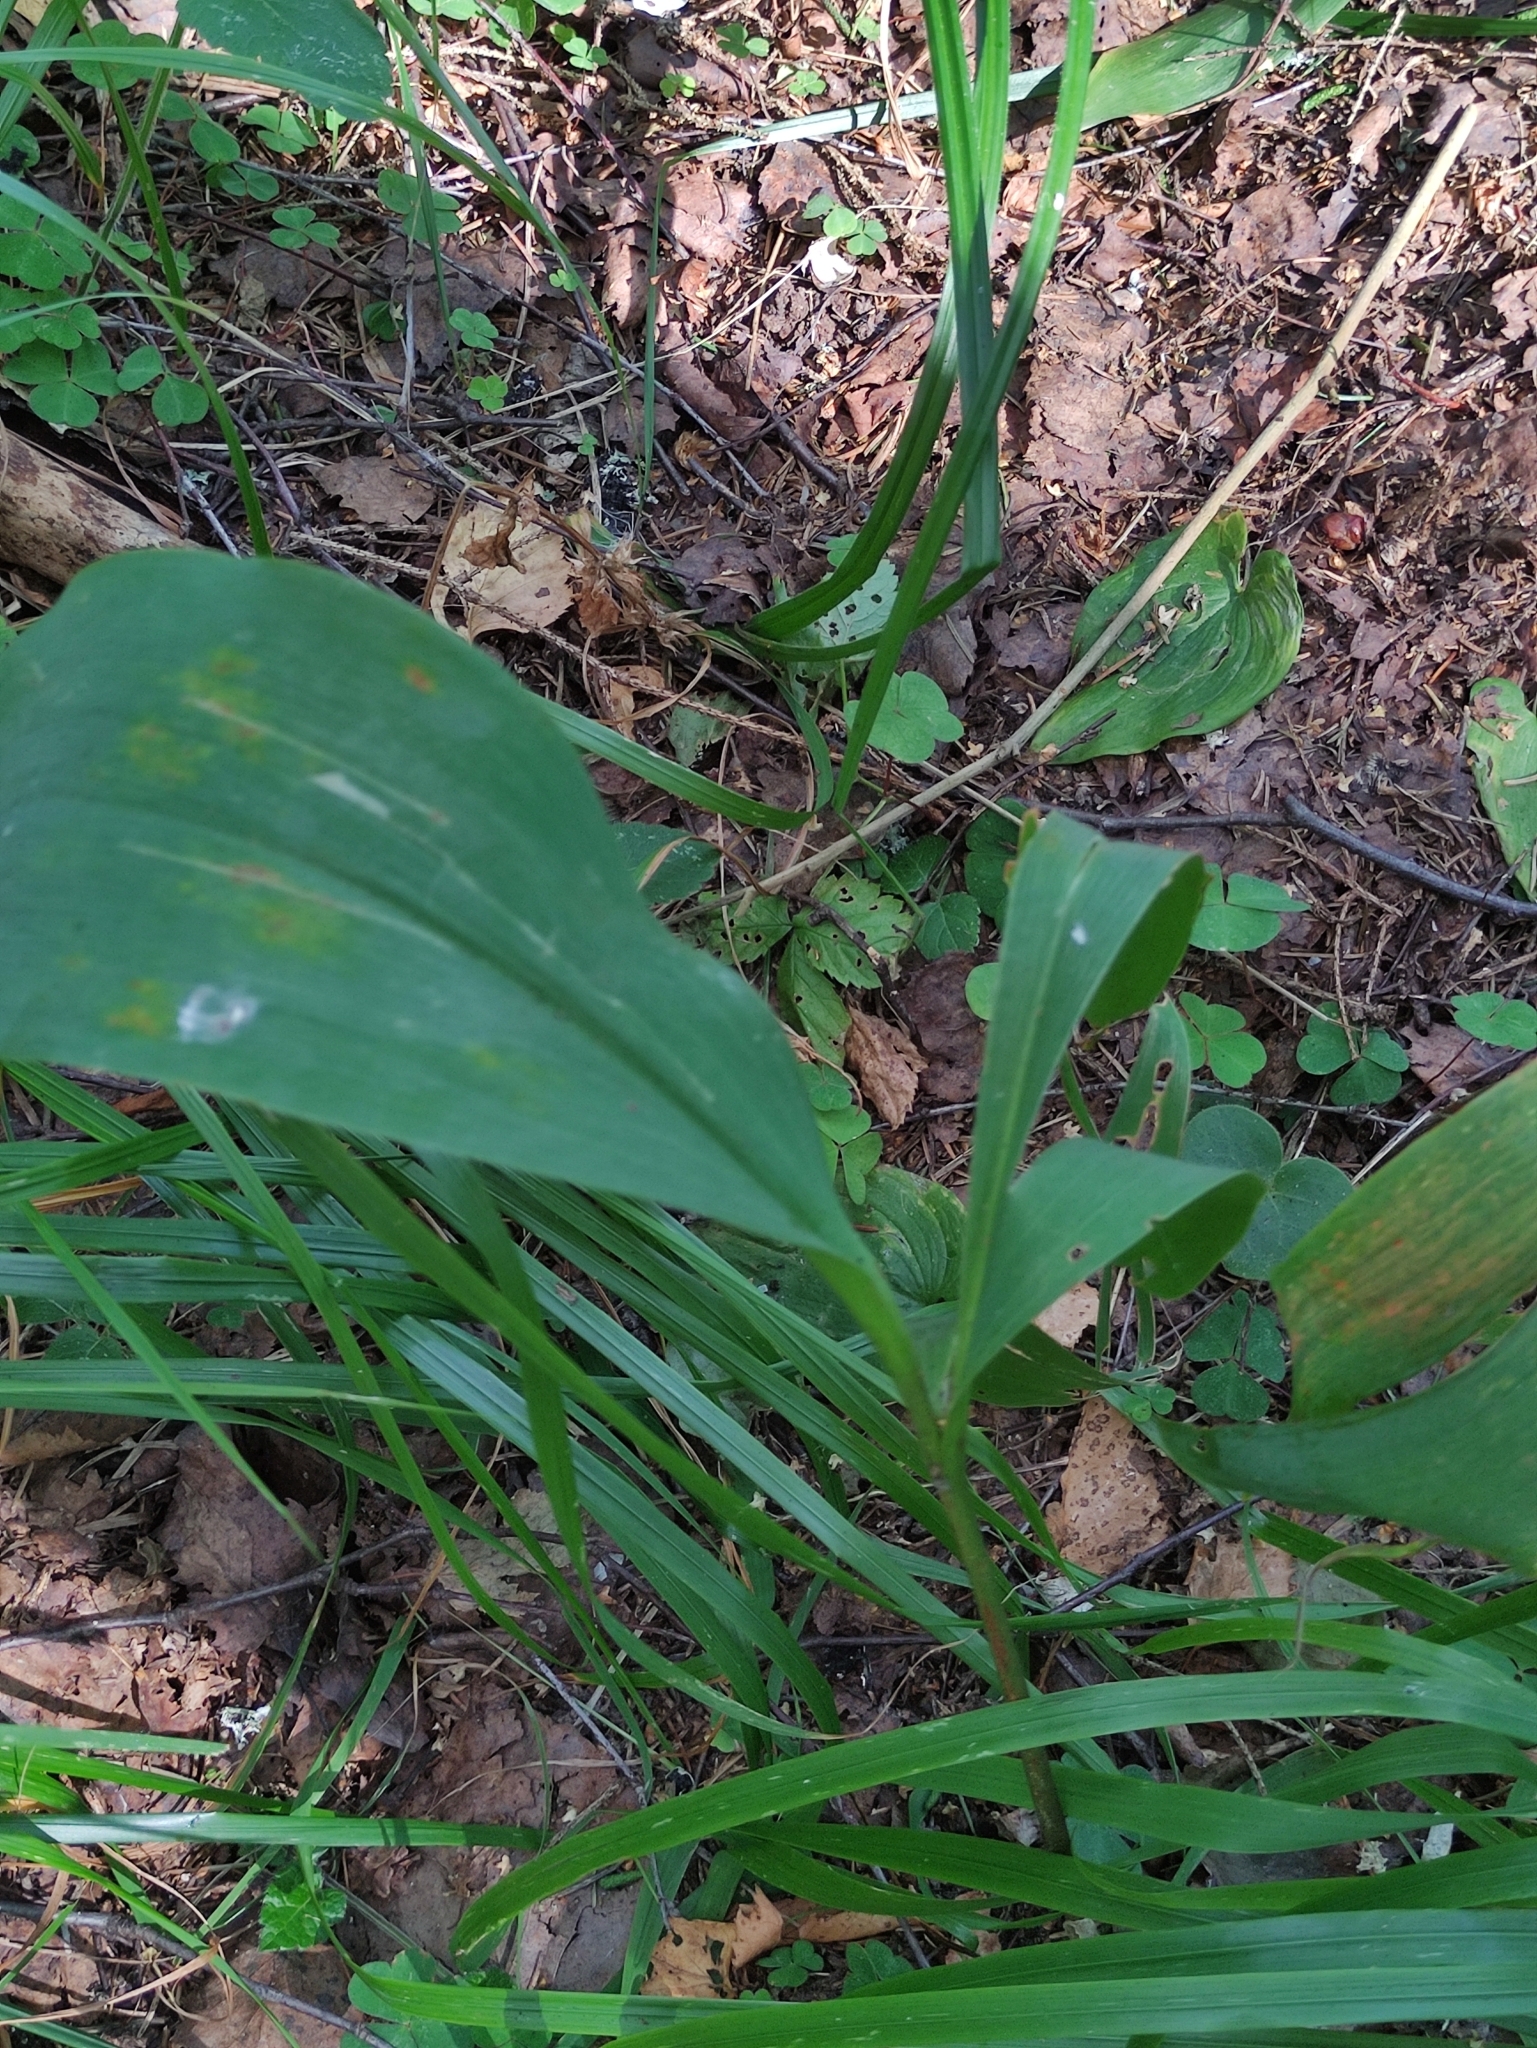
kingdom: Plantae
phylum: Tracheophyta
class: Liliopsida
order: Asparagales
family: Asparagaceae
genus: Convallaria
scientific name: Convallaria majalis
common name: Lily-of-the-valley
